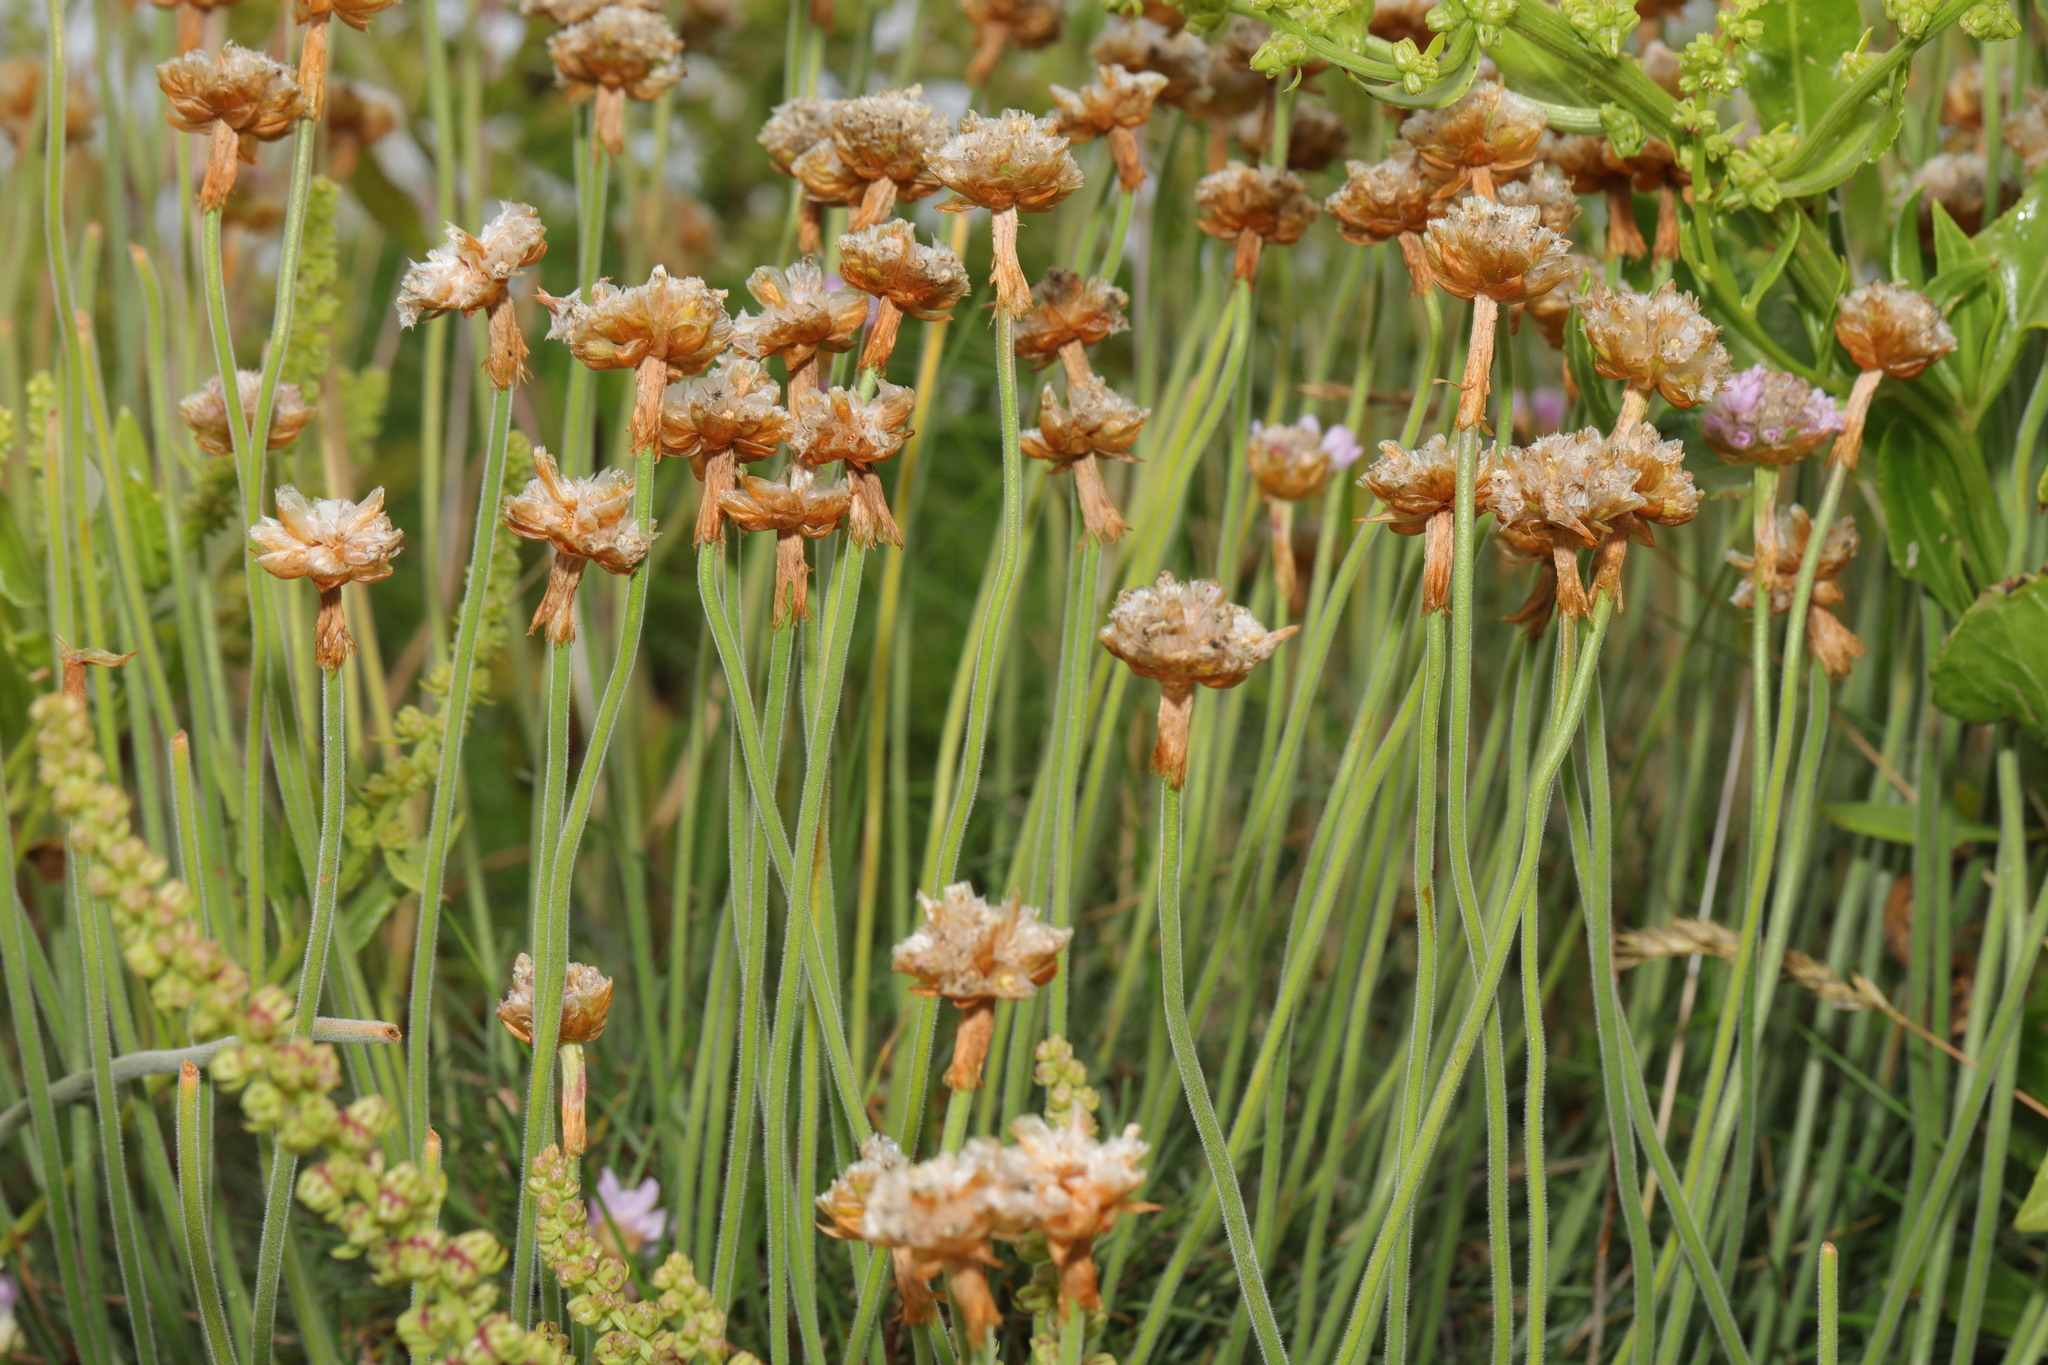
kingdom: Plantae
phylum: Tracheophyta
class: Magnoliopsida
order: Caryophyllales
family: Plumbaginaceae
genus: Armeria
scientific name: Armeria maritima
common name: Thrift
